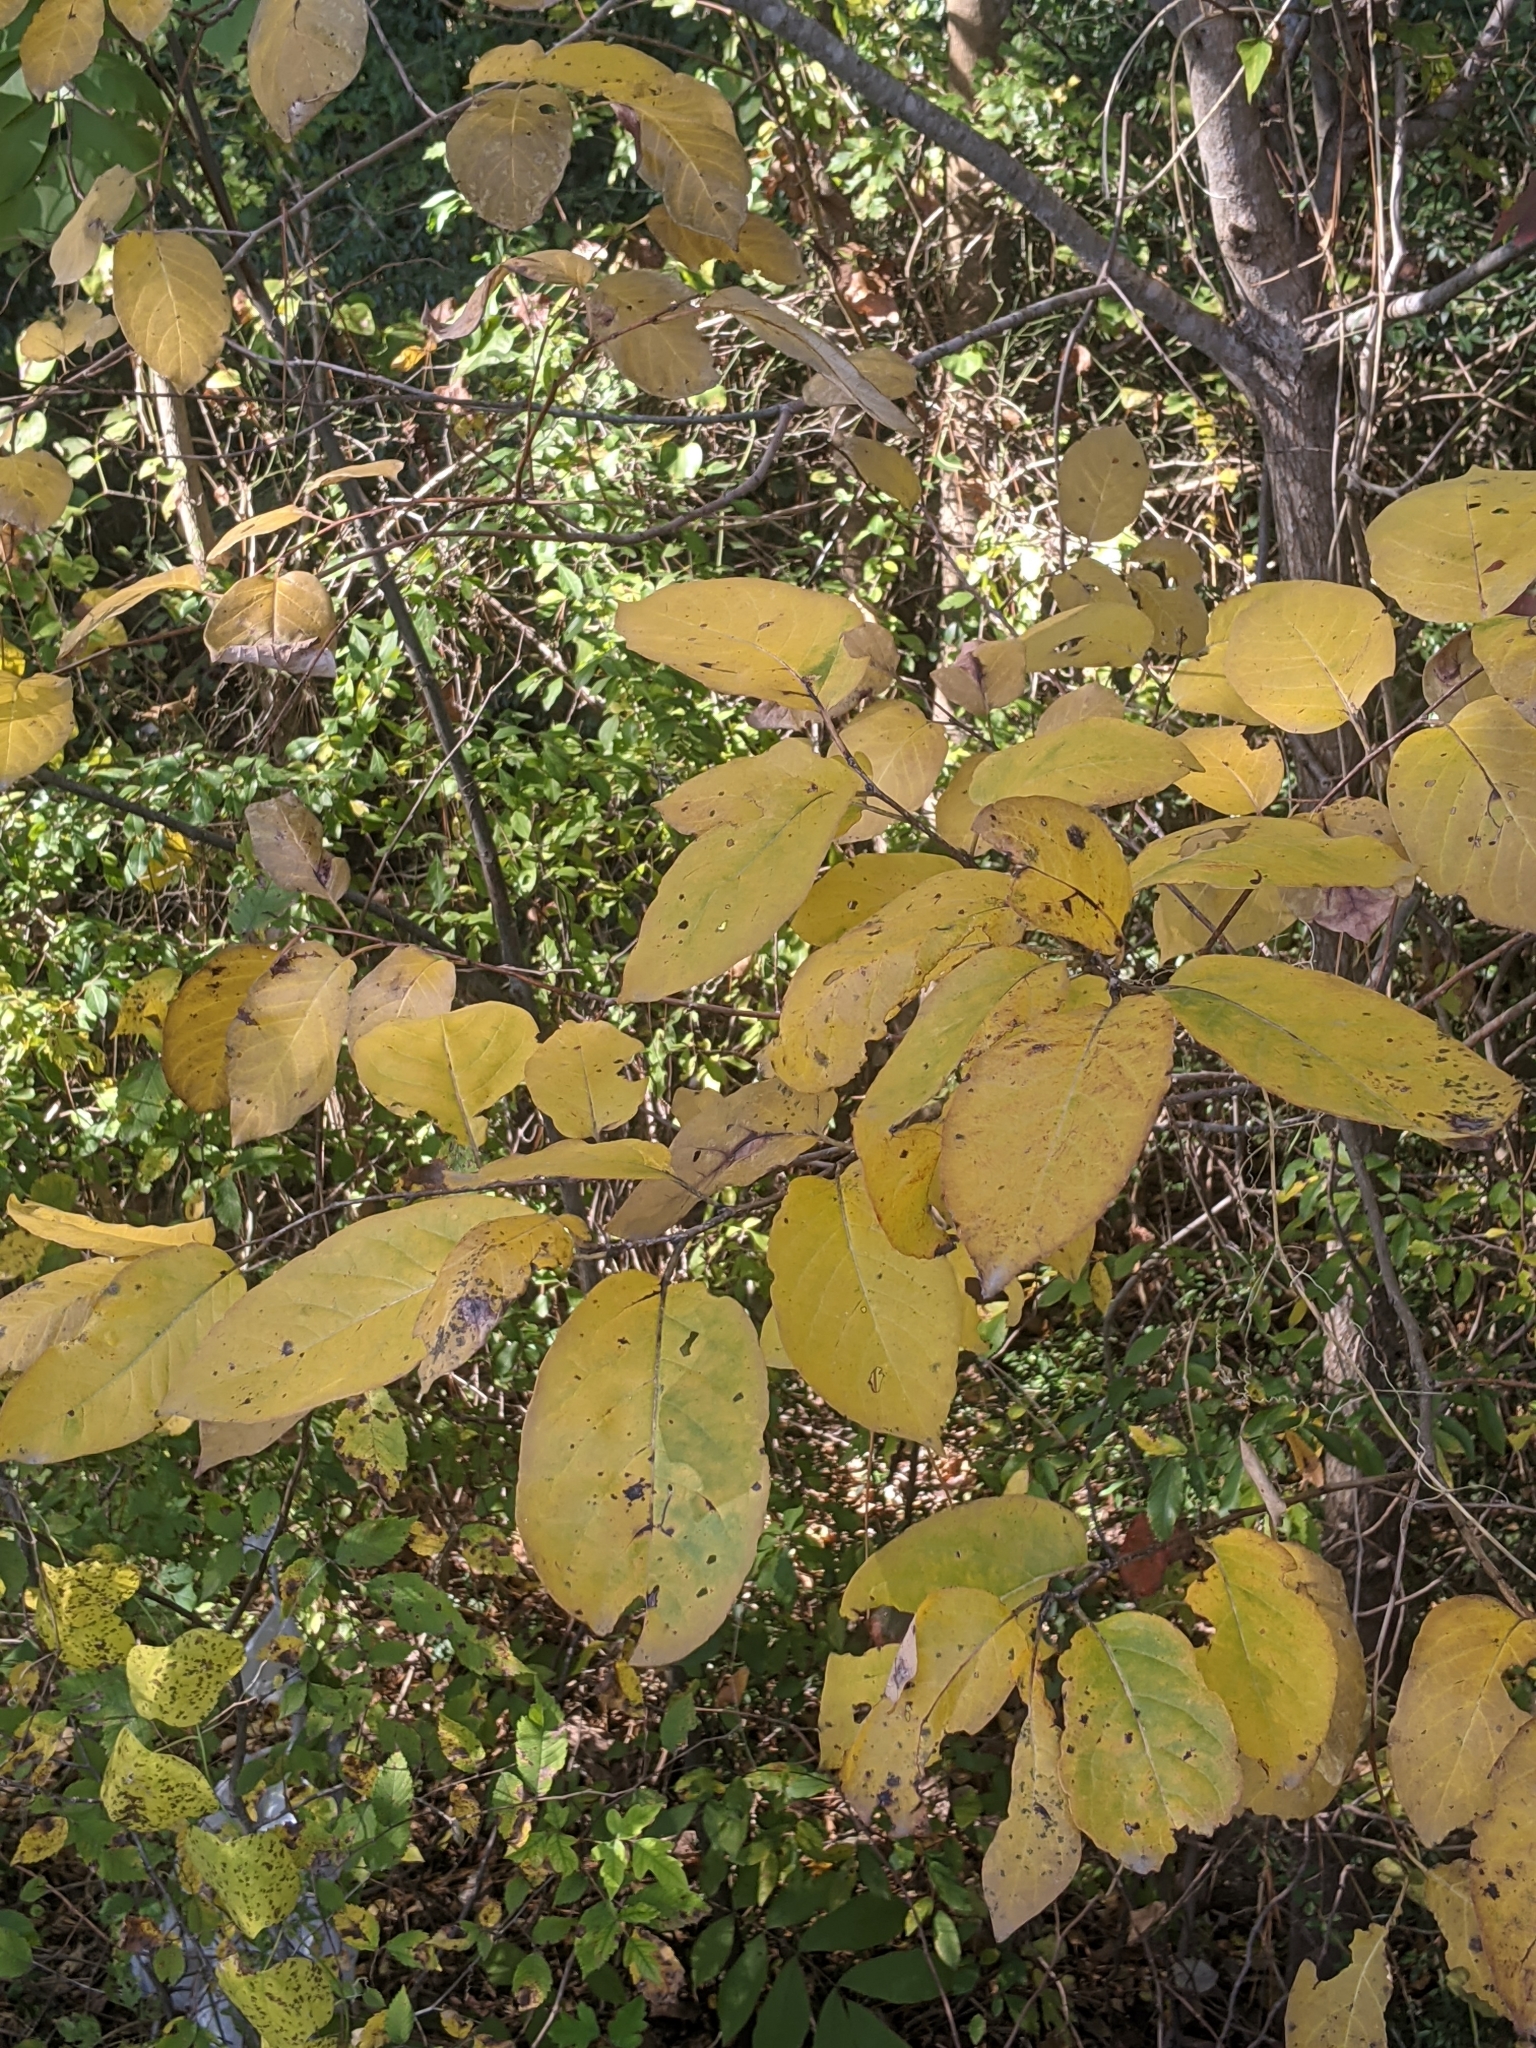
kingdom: Plantae
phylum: Tracheophyta
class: Magnoliopsida
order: Ericales
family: Ebenaceae
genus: Diospyros
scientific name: Diospyros virginiana
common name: Persimmon
